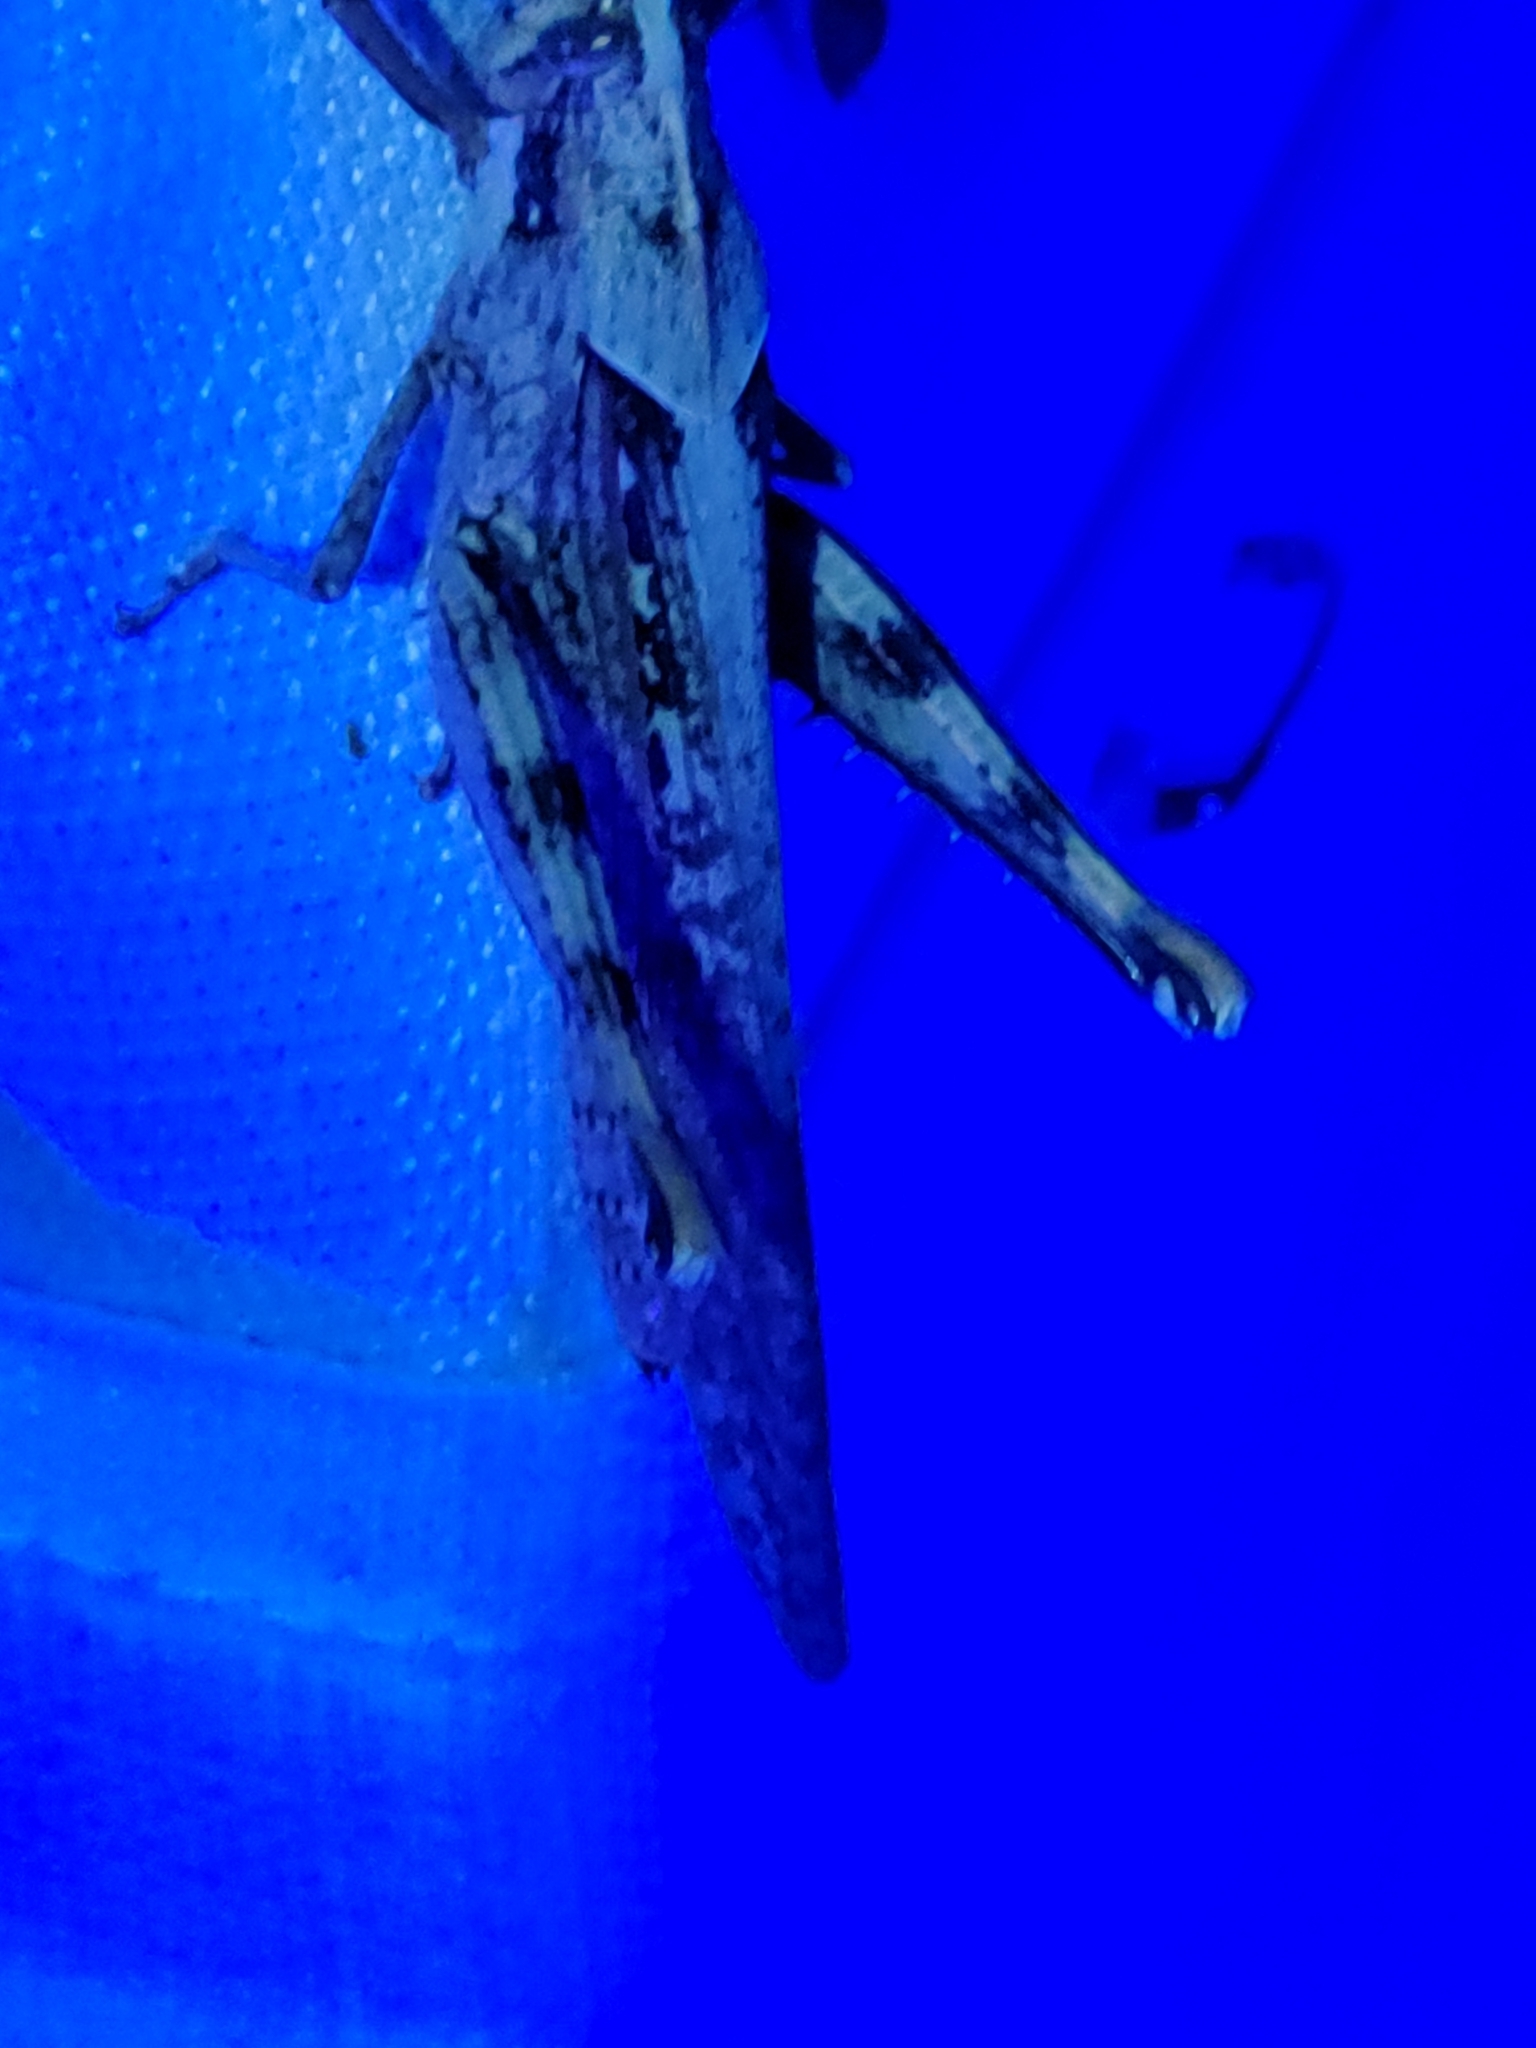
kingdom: Animalia
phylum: Arthropoda
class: Insecta
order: Orthoptera
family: Acrididae
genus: Schistocerca
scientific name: Schistocerca nitens
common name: Vagrant grasshopper
